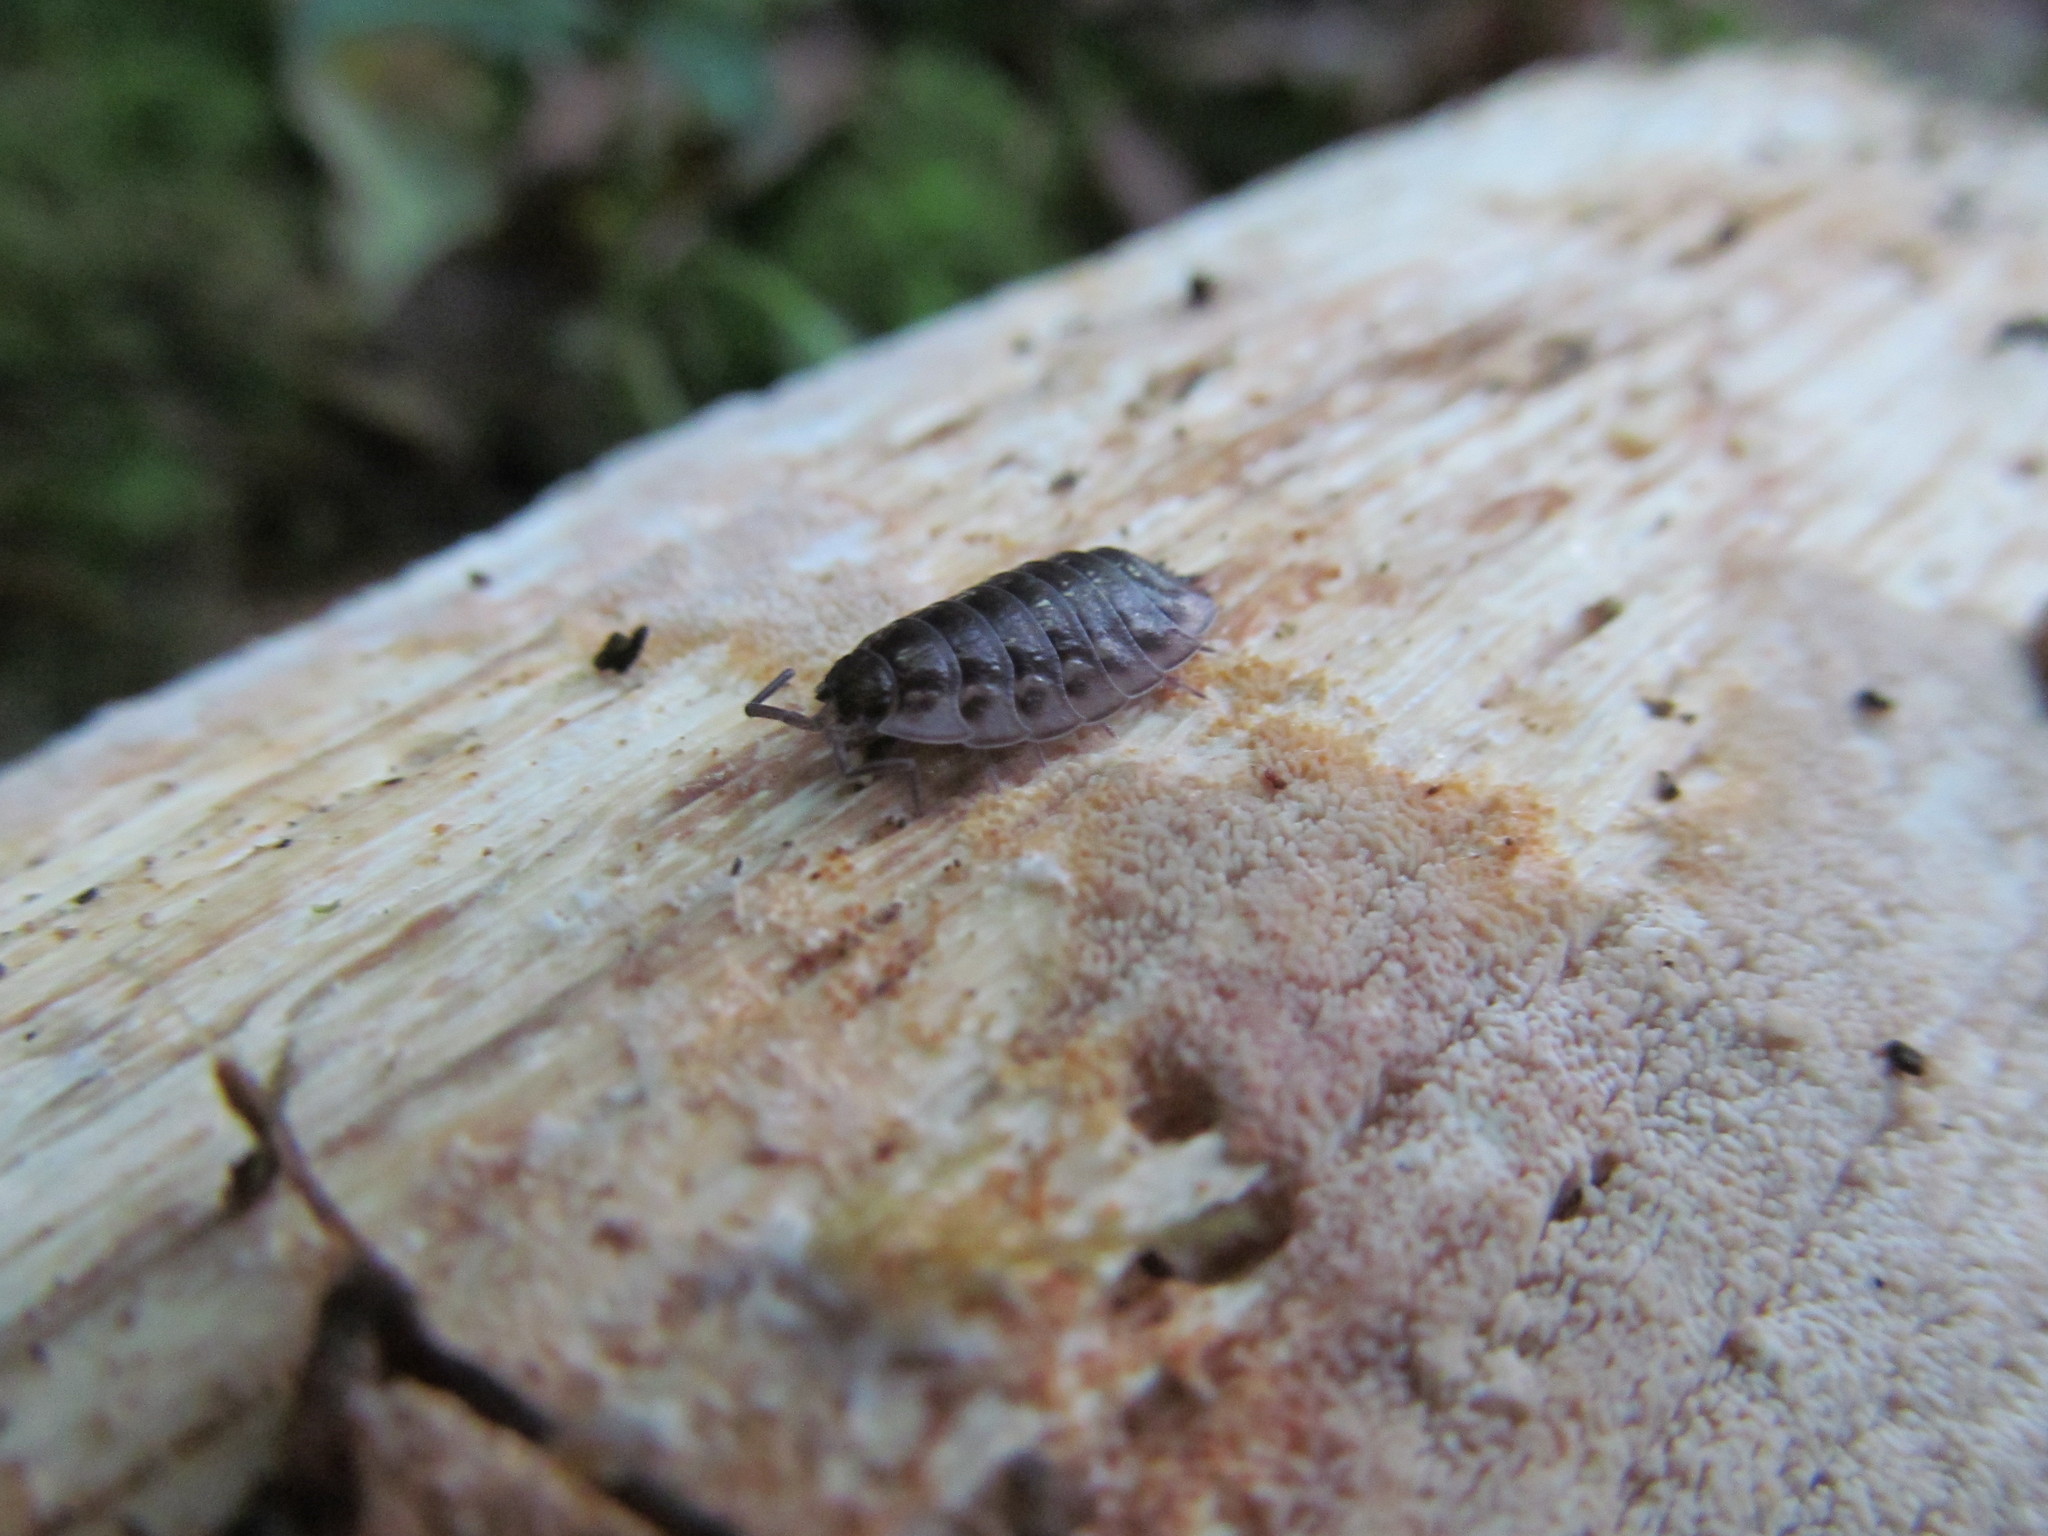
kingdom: Animalia
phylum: Arthropoda
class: Malacostraca
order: Isopoda
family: Oniscidae
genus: Oniscus
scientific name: Oniscus asellus
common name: Common shiny woodlouse
